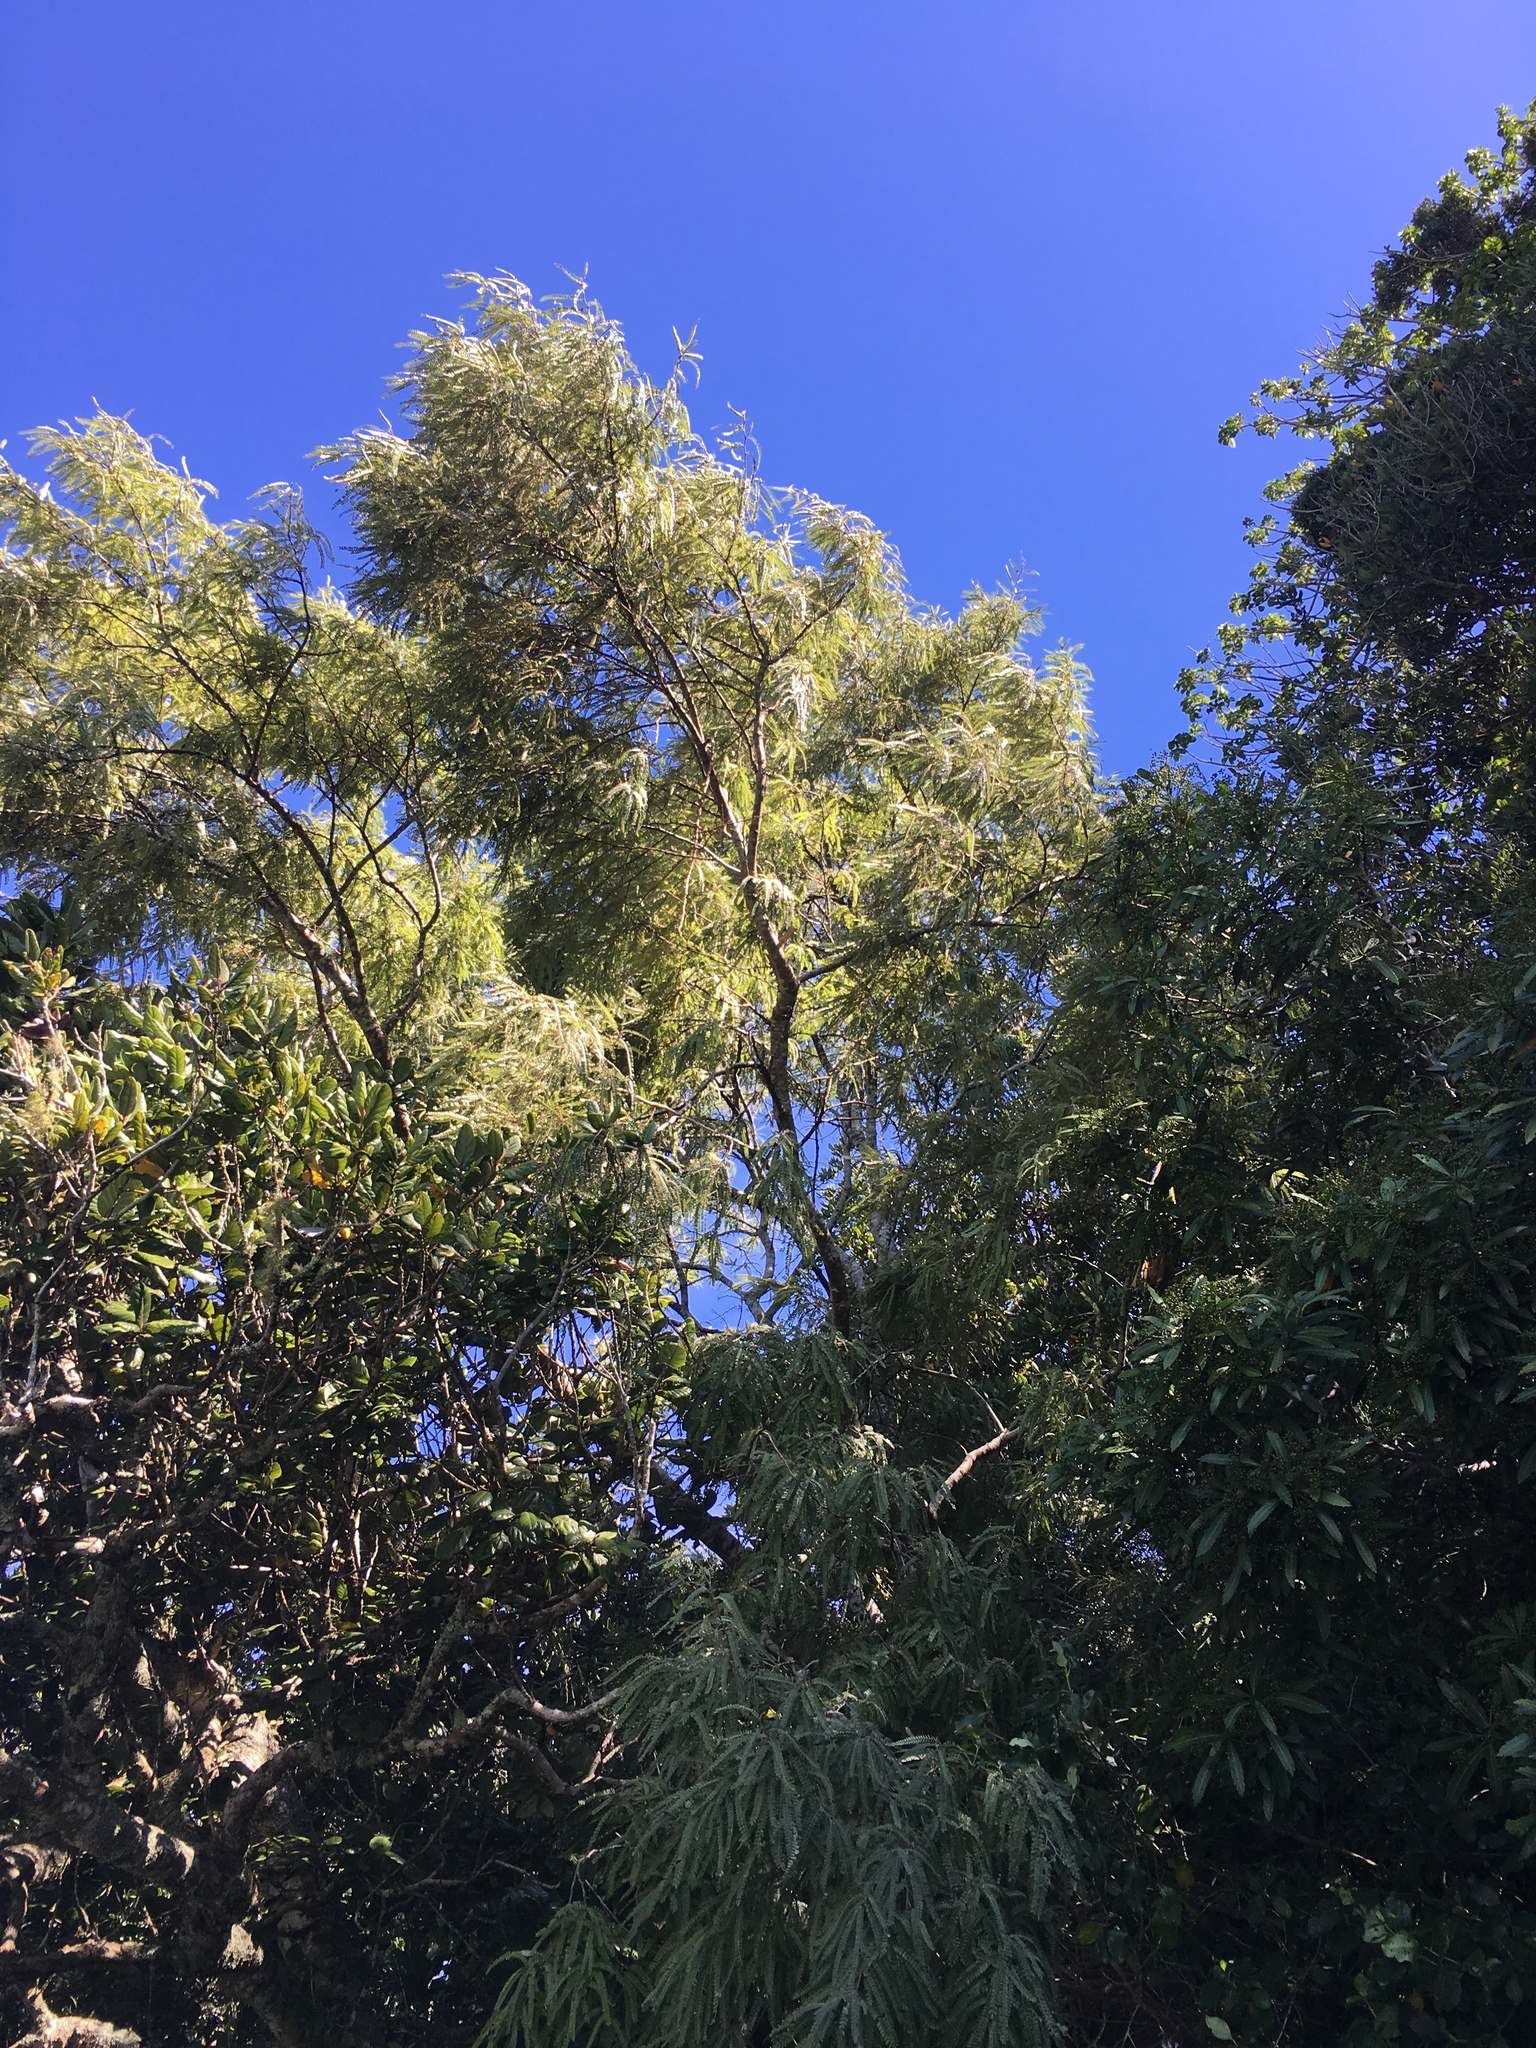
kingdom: Plantae
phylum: Tracheophyta
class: Magnoliopsida
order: Fabales
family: Fabaceae
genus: Sophora
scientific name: Sophora chathamica
